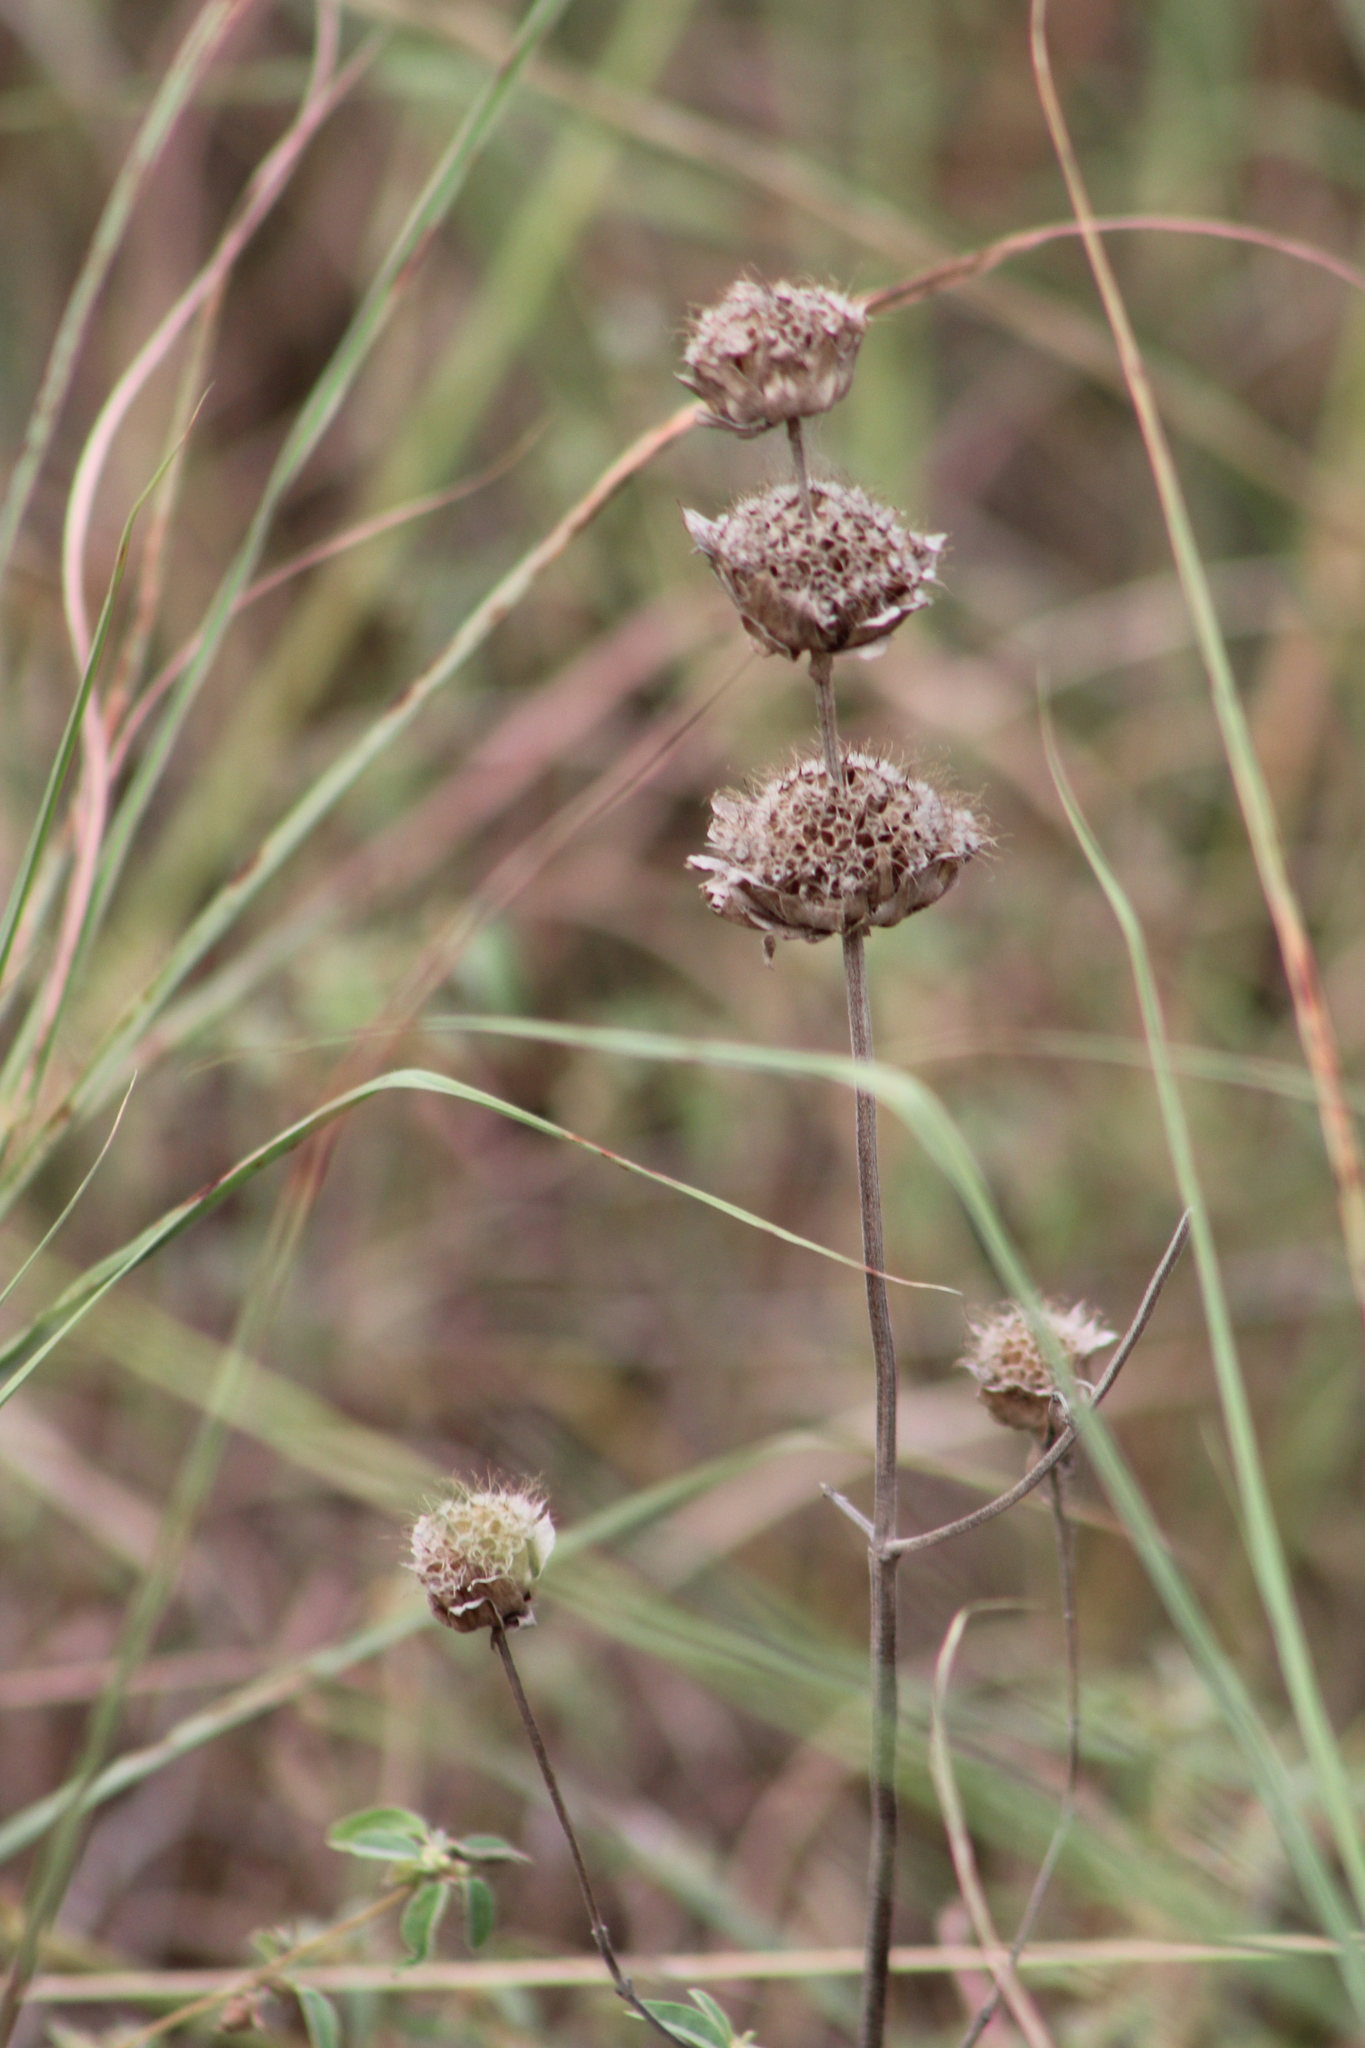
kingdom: Plantae
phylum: Tracheophyta
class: Magnoliopsida
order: Lamiales
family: Lamiaceae
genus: Monarda
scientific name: Monarda citriodora
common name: Lemon beebalm
